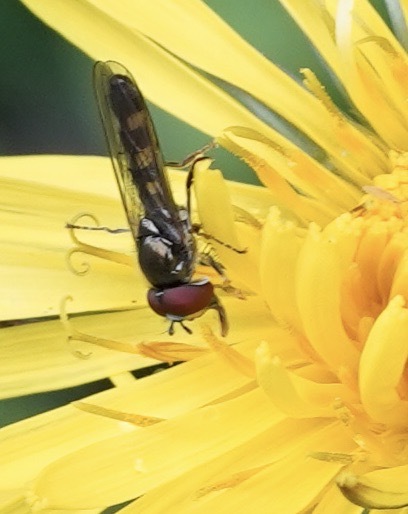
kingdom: Animalia
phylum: Arthropoda
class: Insecta
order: Diptera
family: Syrphidae
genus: Platycheirus
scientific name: Platycheirus
